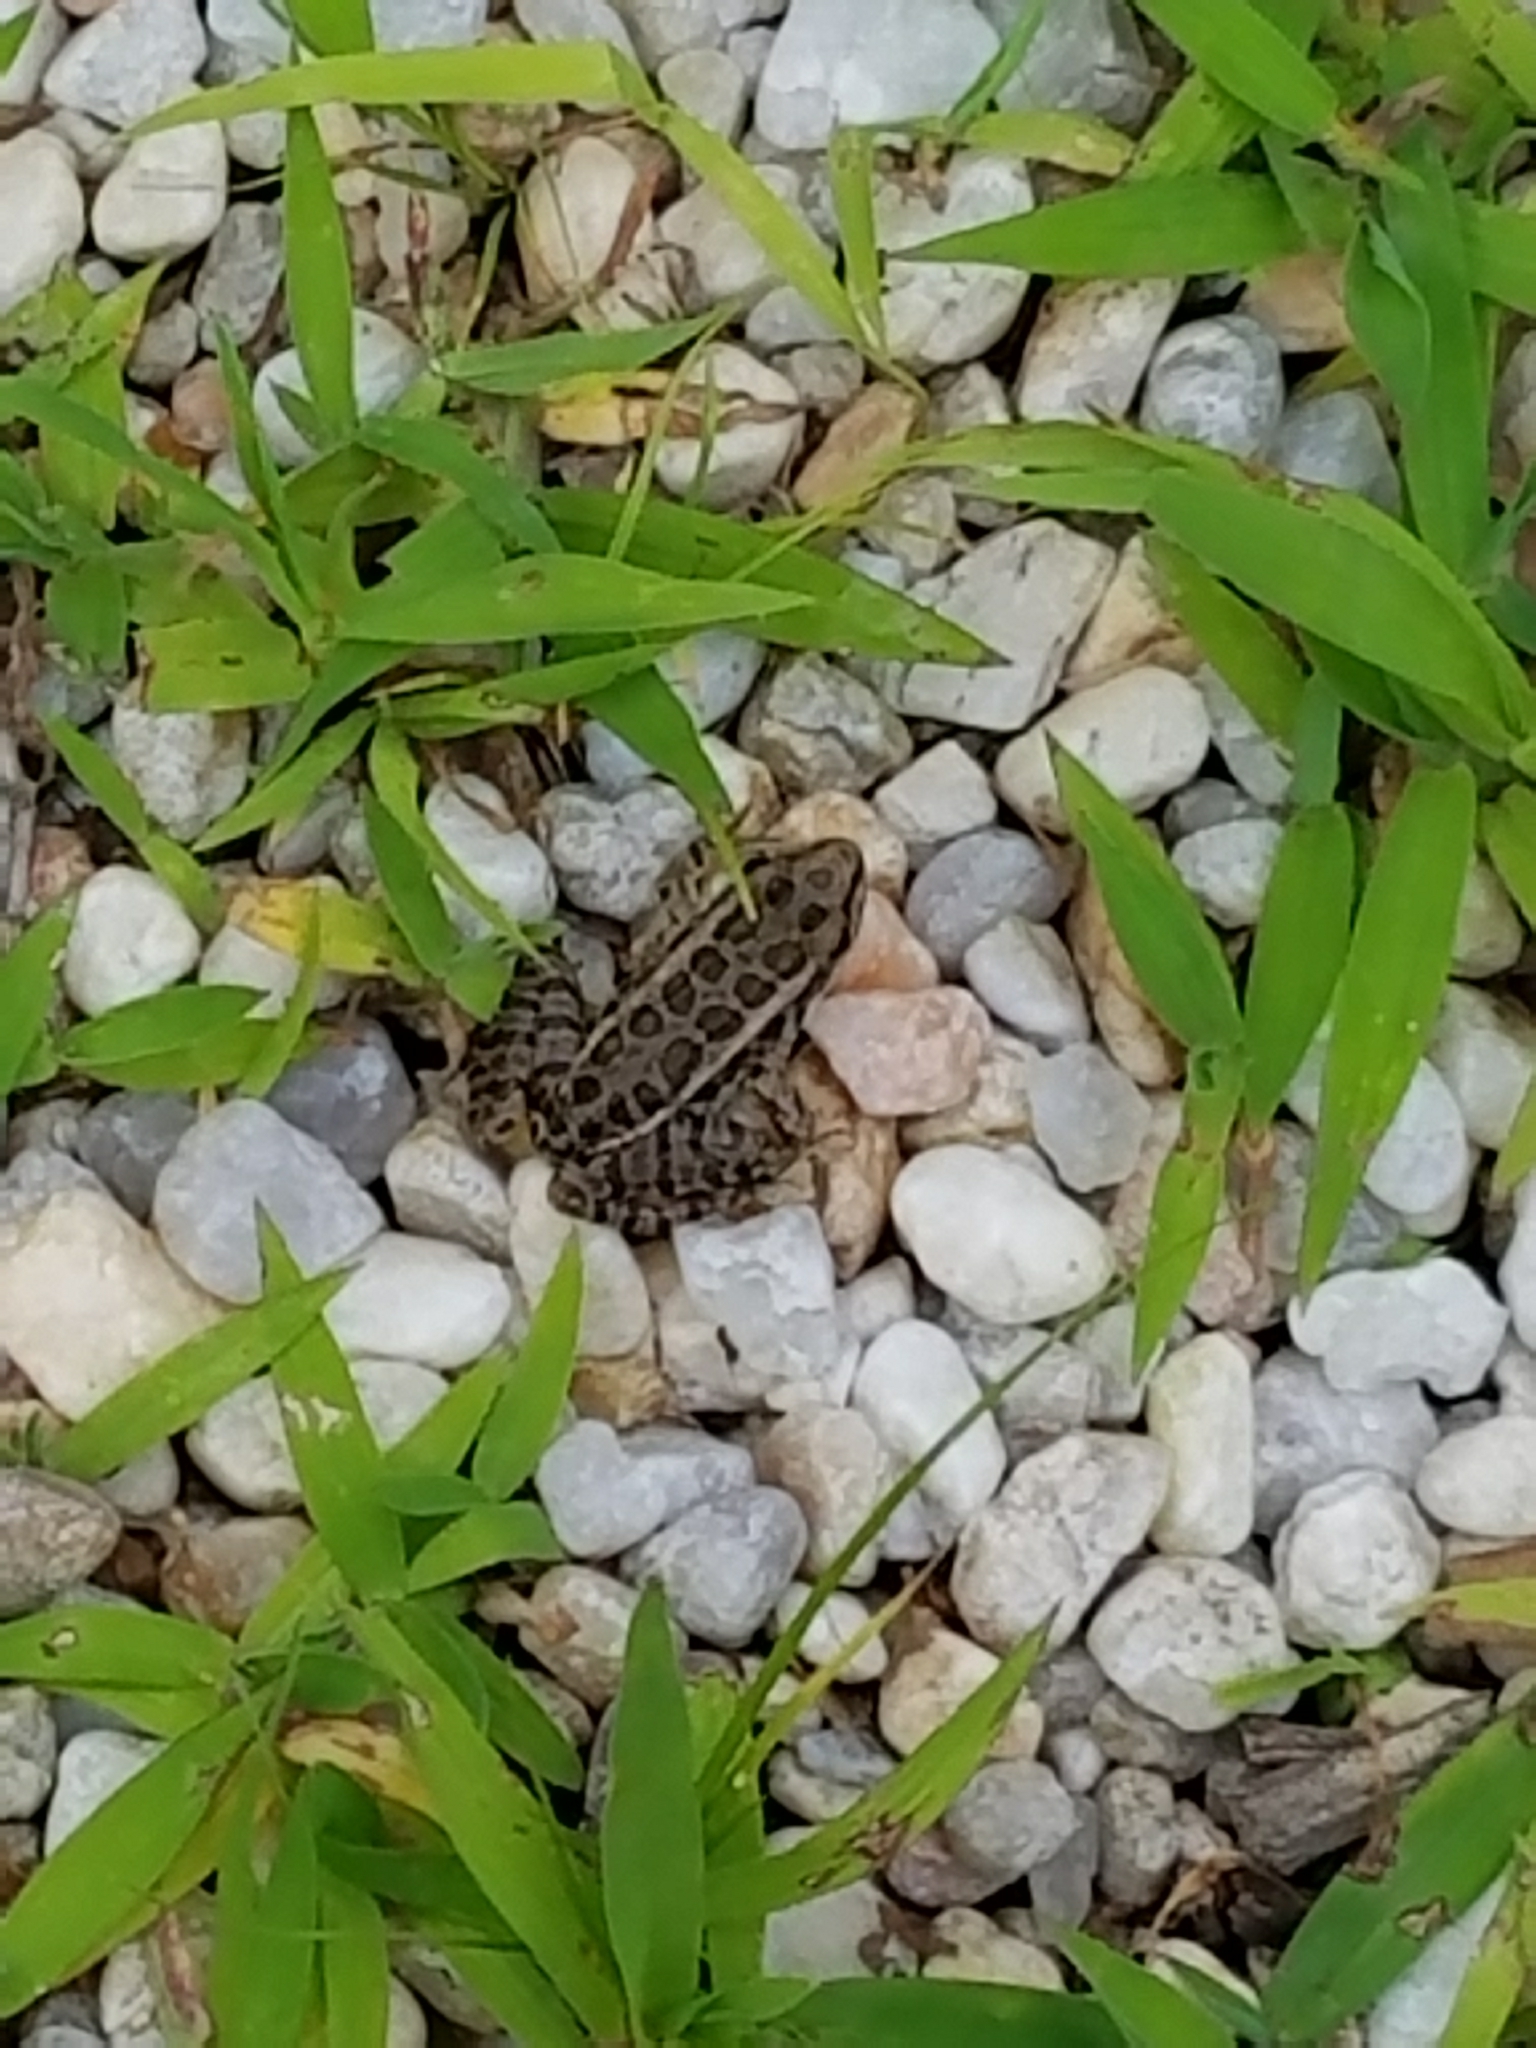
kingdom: Animalia
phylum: Chordata
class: Amphibia
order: Anura
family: Ranidae
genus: Lithobates
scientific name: Lithobates palustris
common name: Pickerel frog
